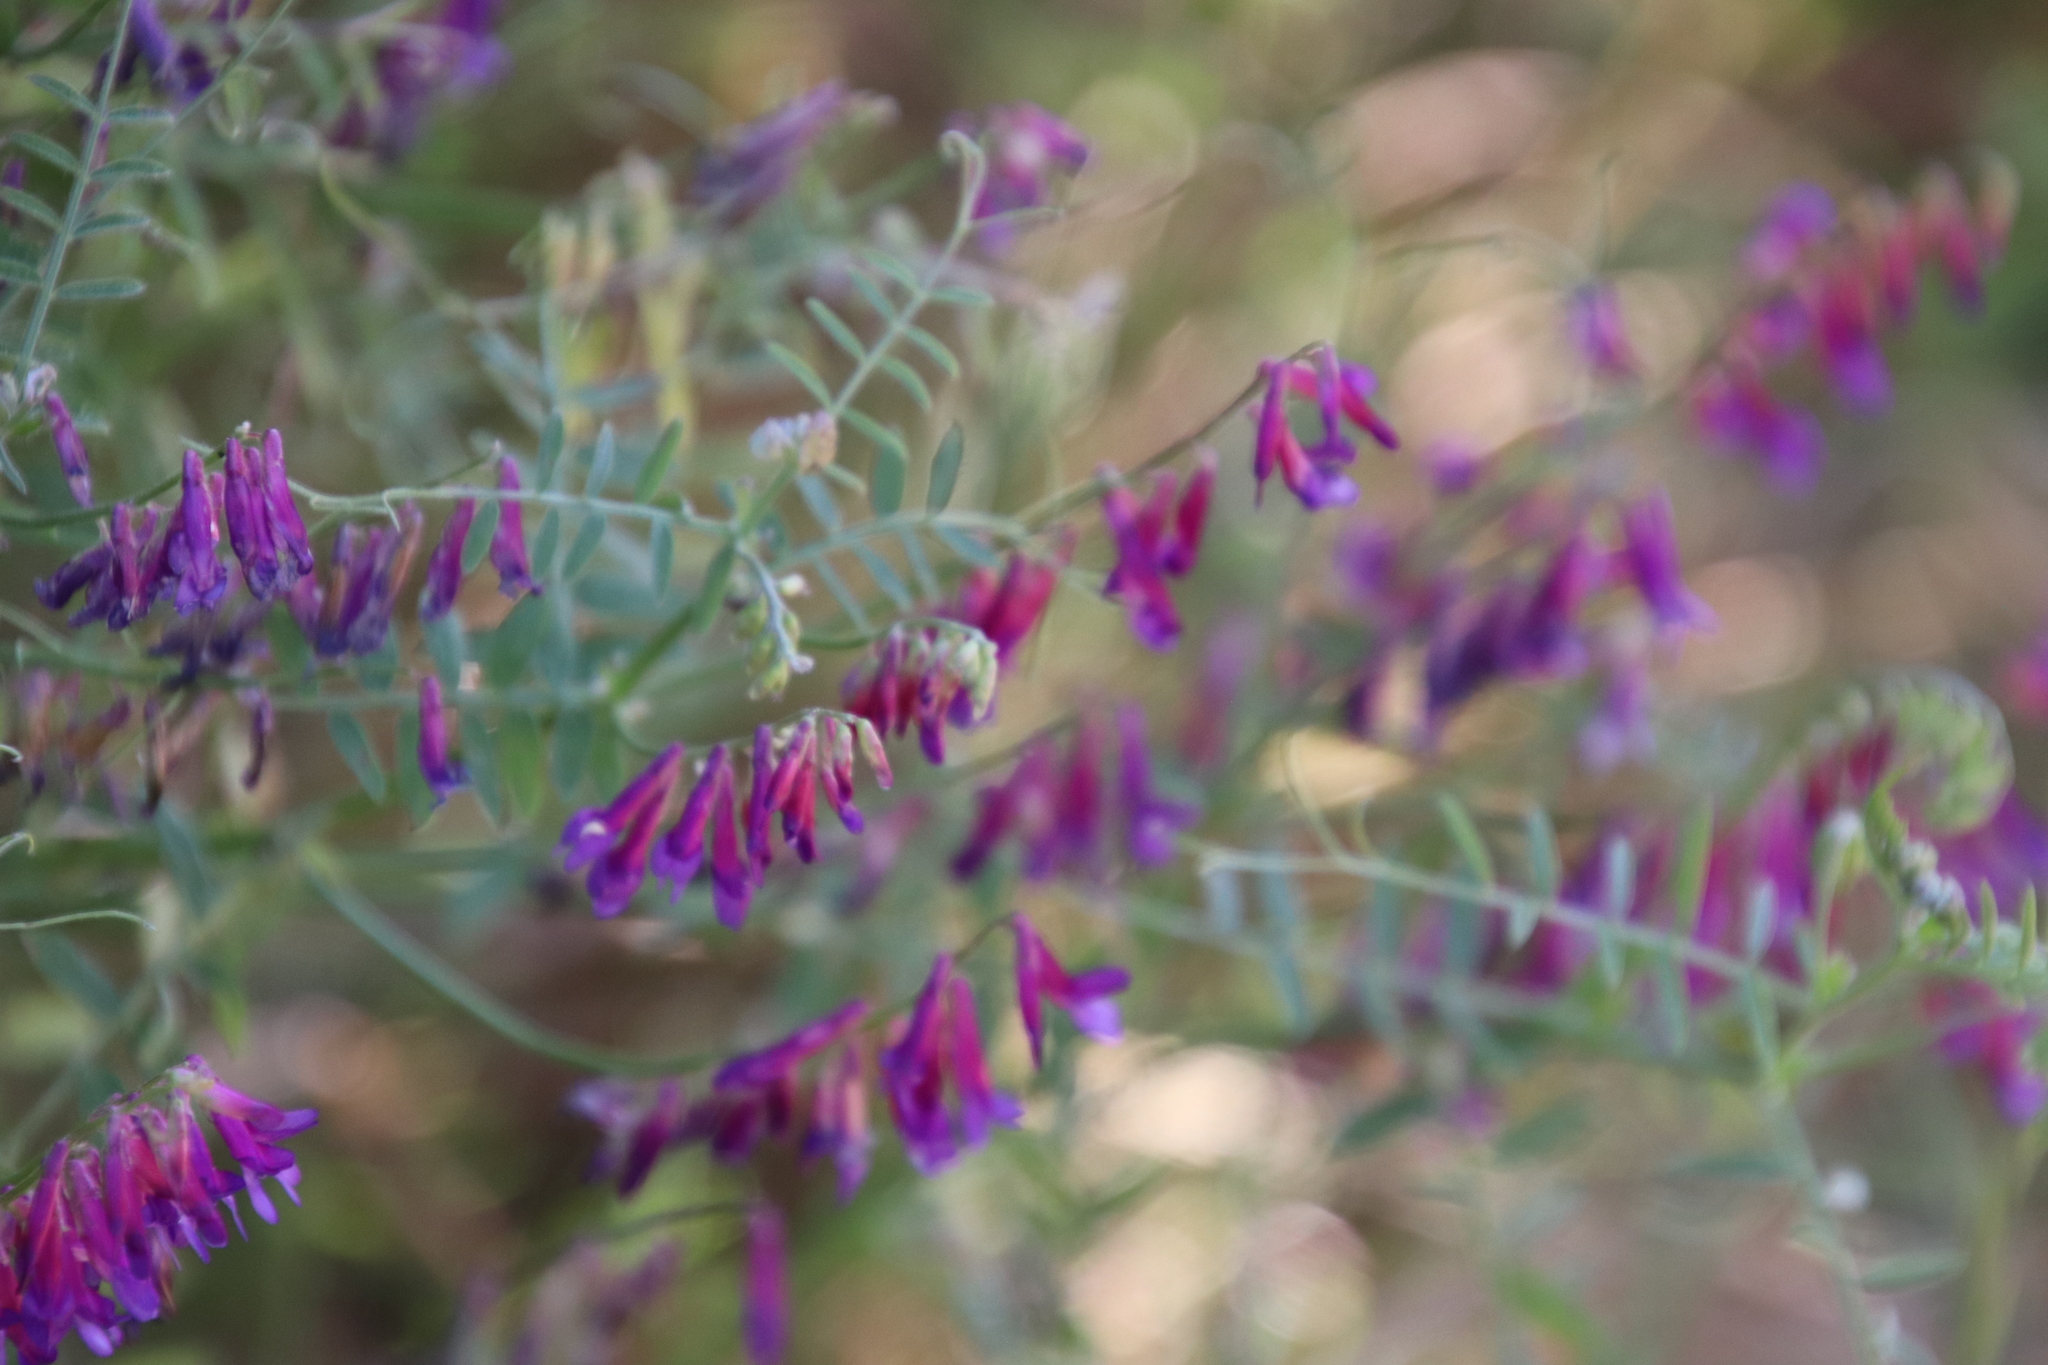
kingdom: Plantae
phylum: Tracheophyta
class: Magnoliopsida
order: Fabales
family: Fabaceae
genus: Vicia
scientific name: Vicia villosa
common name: Fodder vetch
